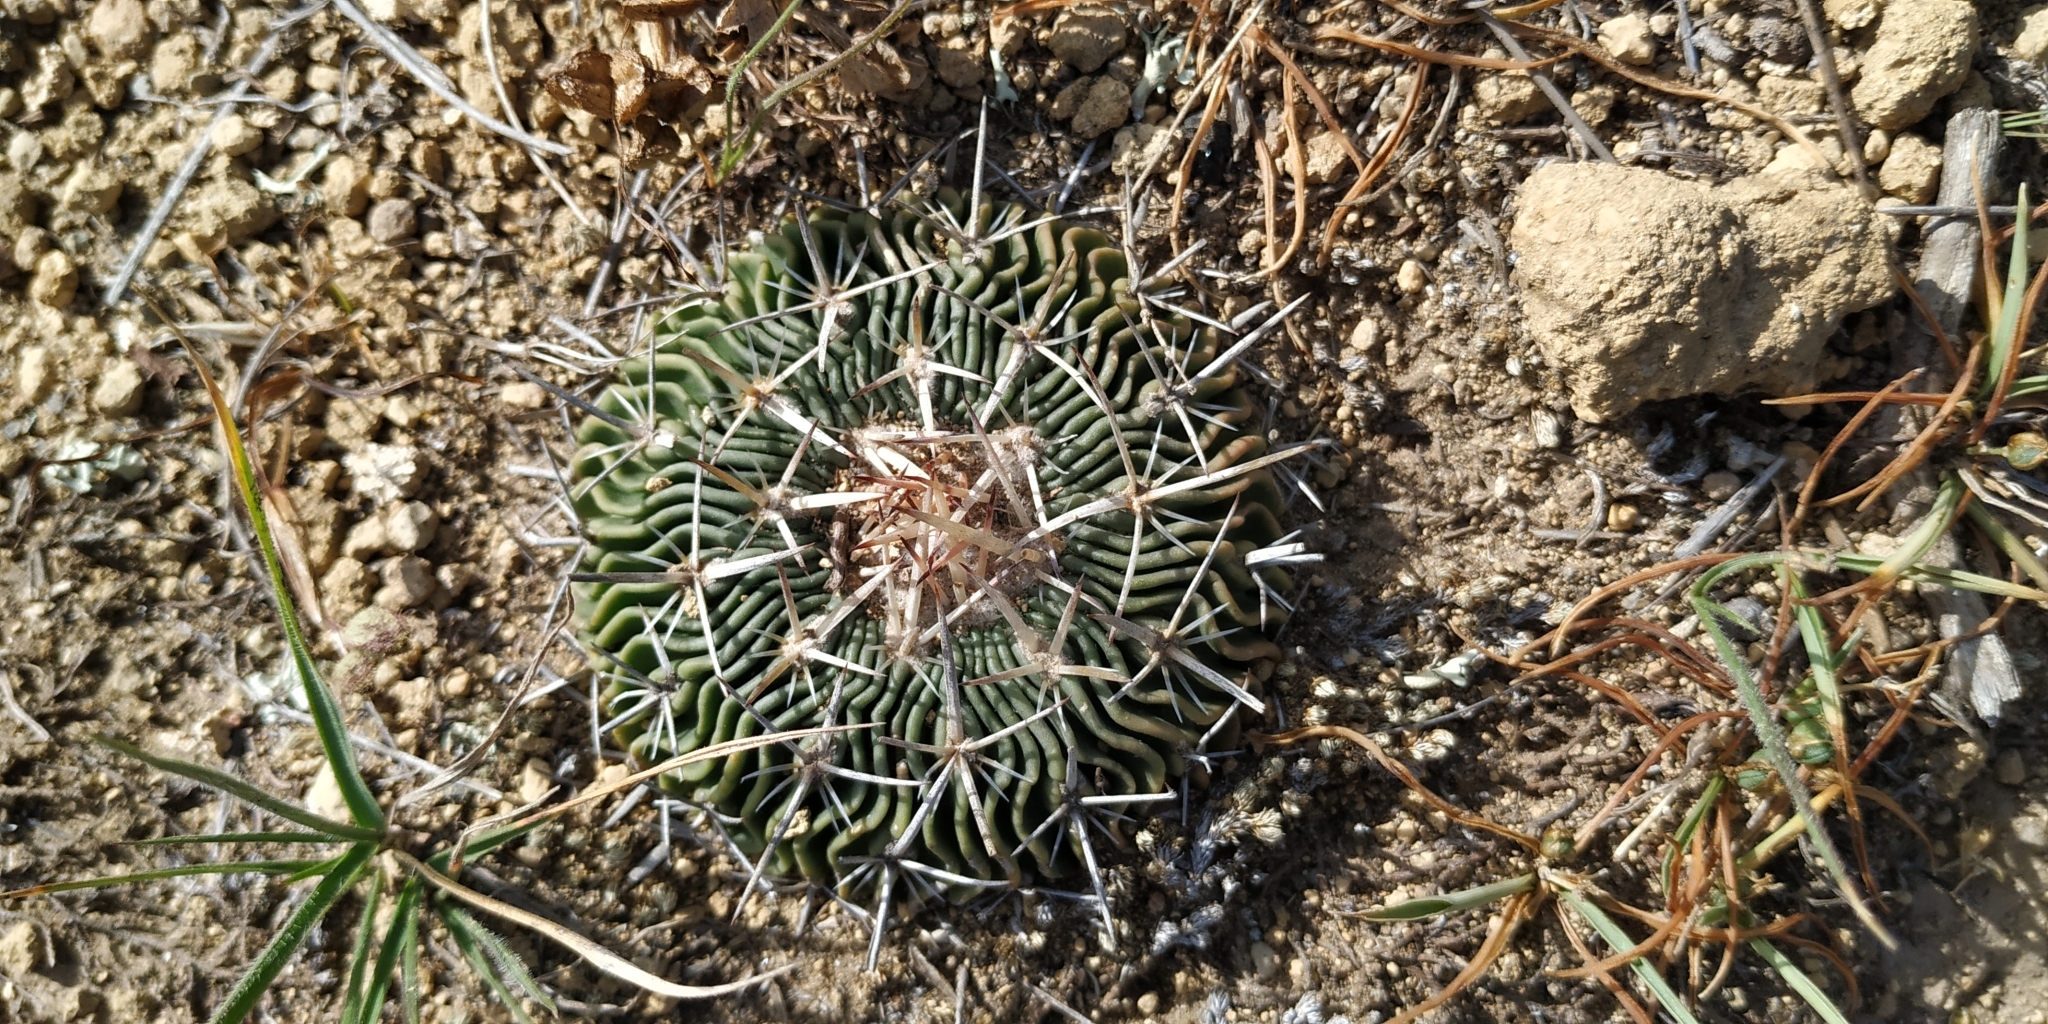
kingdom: Plantae
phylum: Tracheophyta
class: Magnoliopsida
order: Caryophyllales
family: Cactaceae
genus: Stenocactus
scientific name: Stenocactus crispatus
